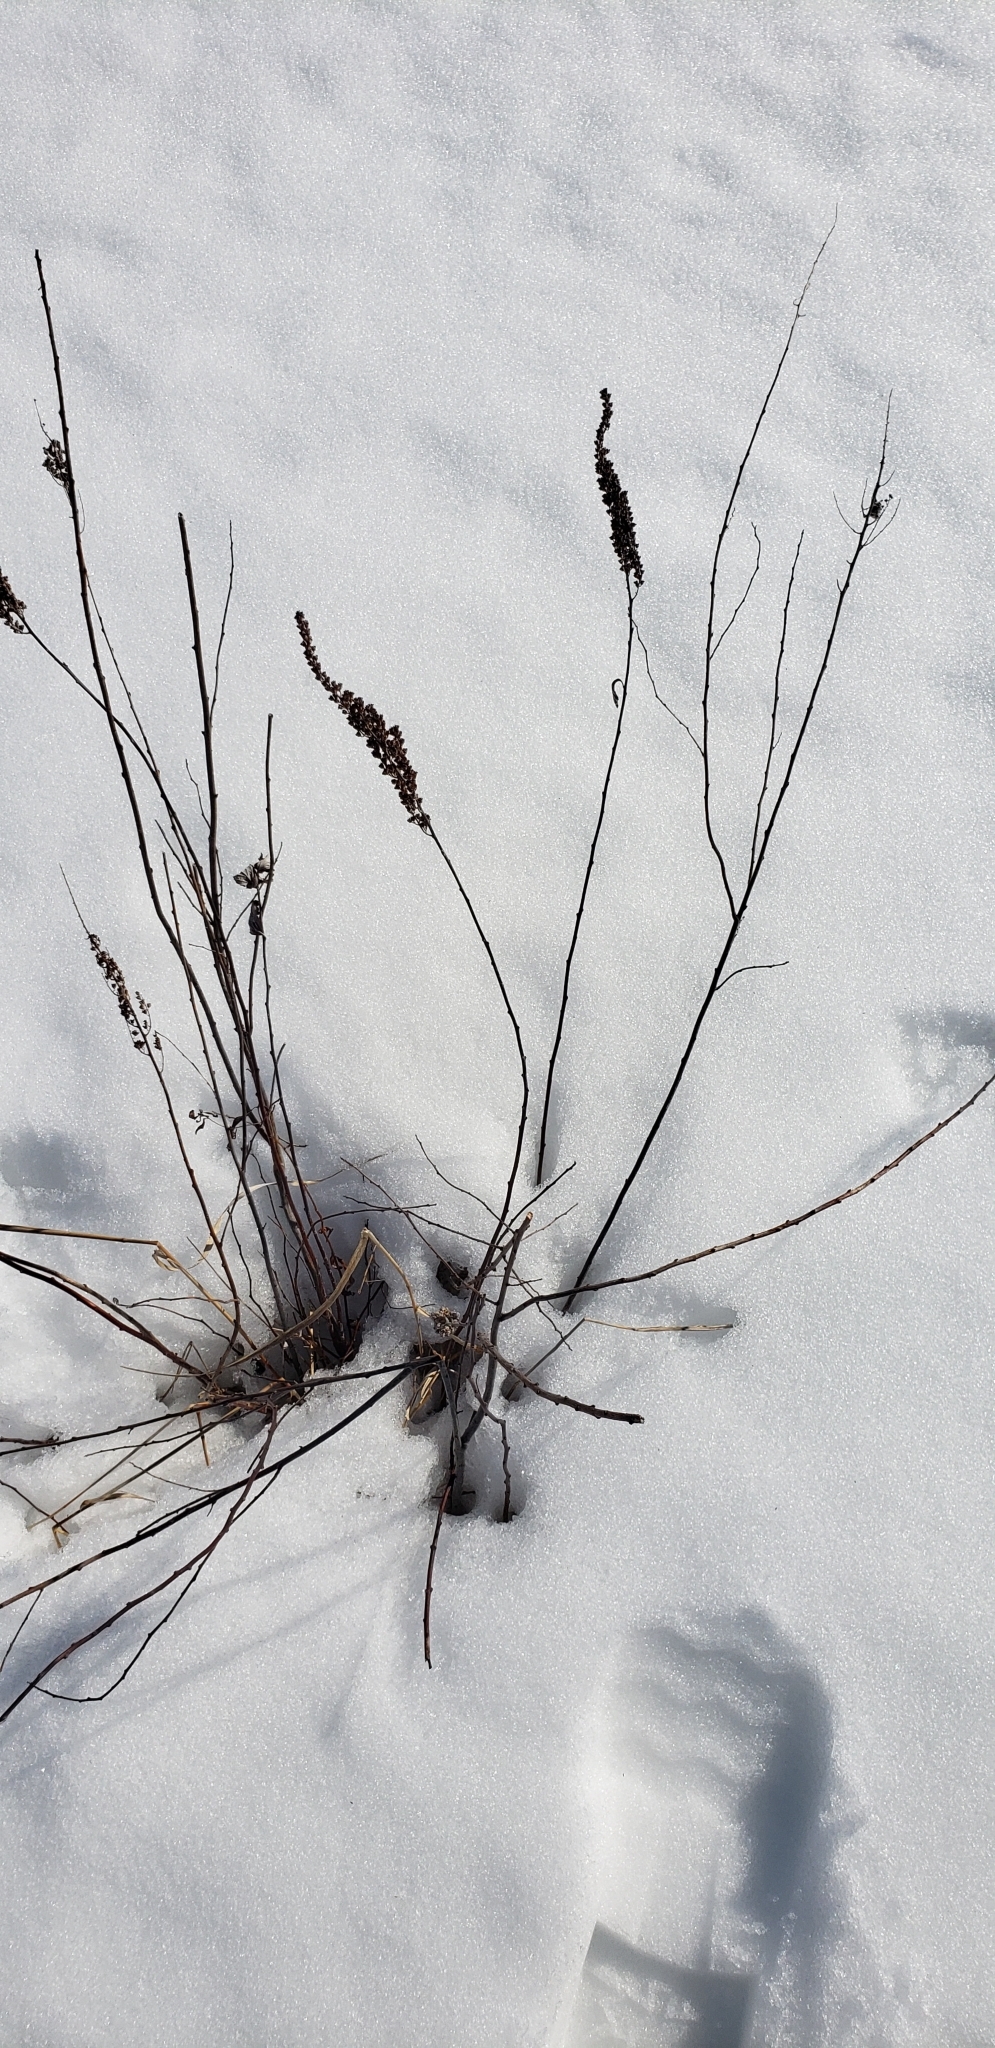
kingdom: Plantae
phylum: Tracheophyta
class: Magnoliopsida
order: Rosales
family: Rosaceae
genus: Spiraea
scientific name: Spiraea tomentosa
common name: Hardhack
